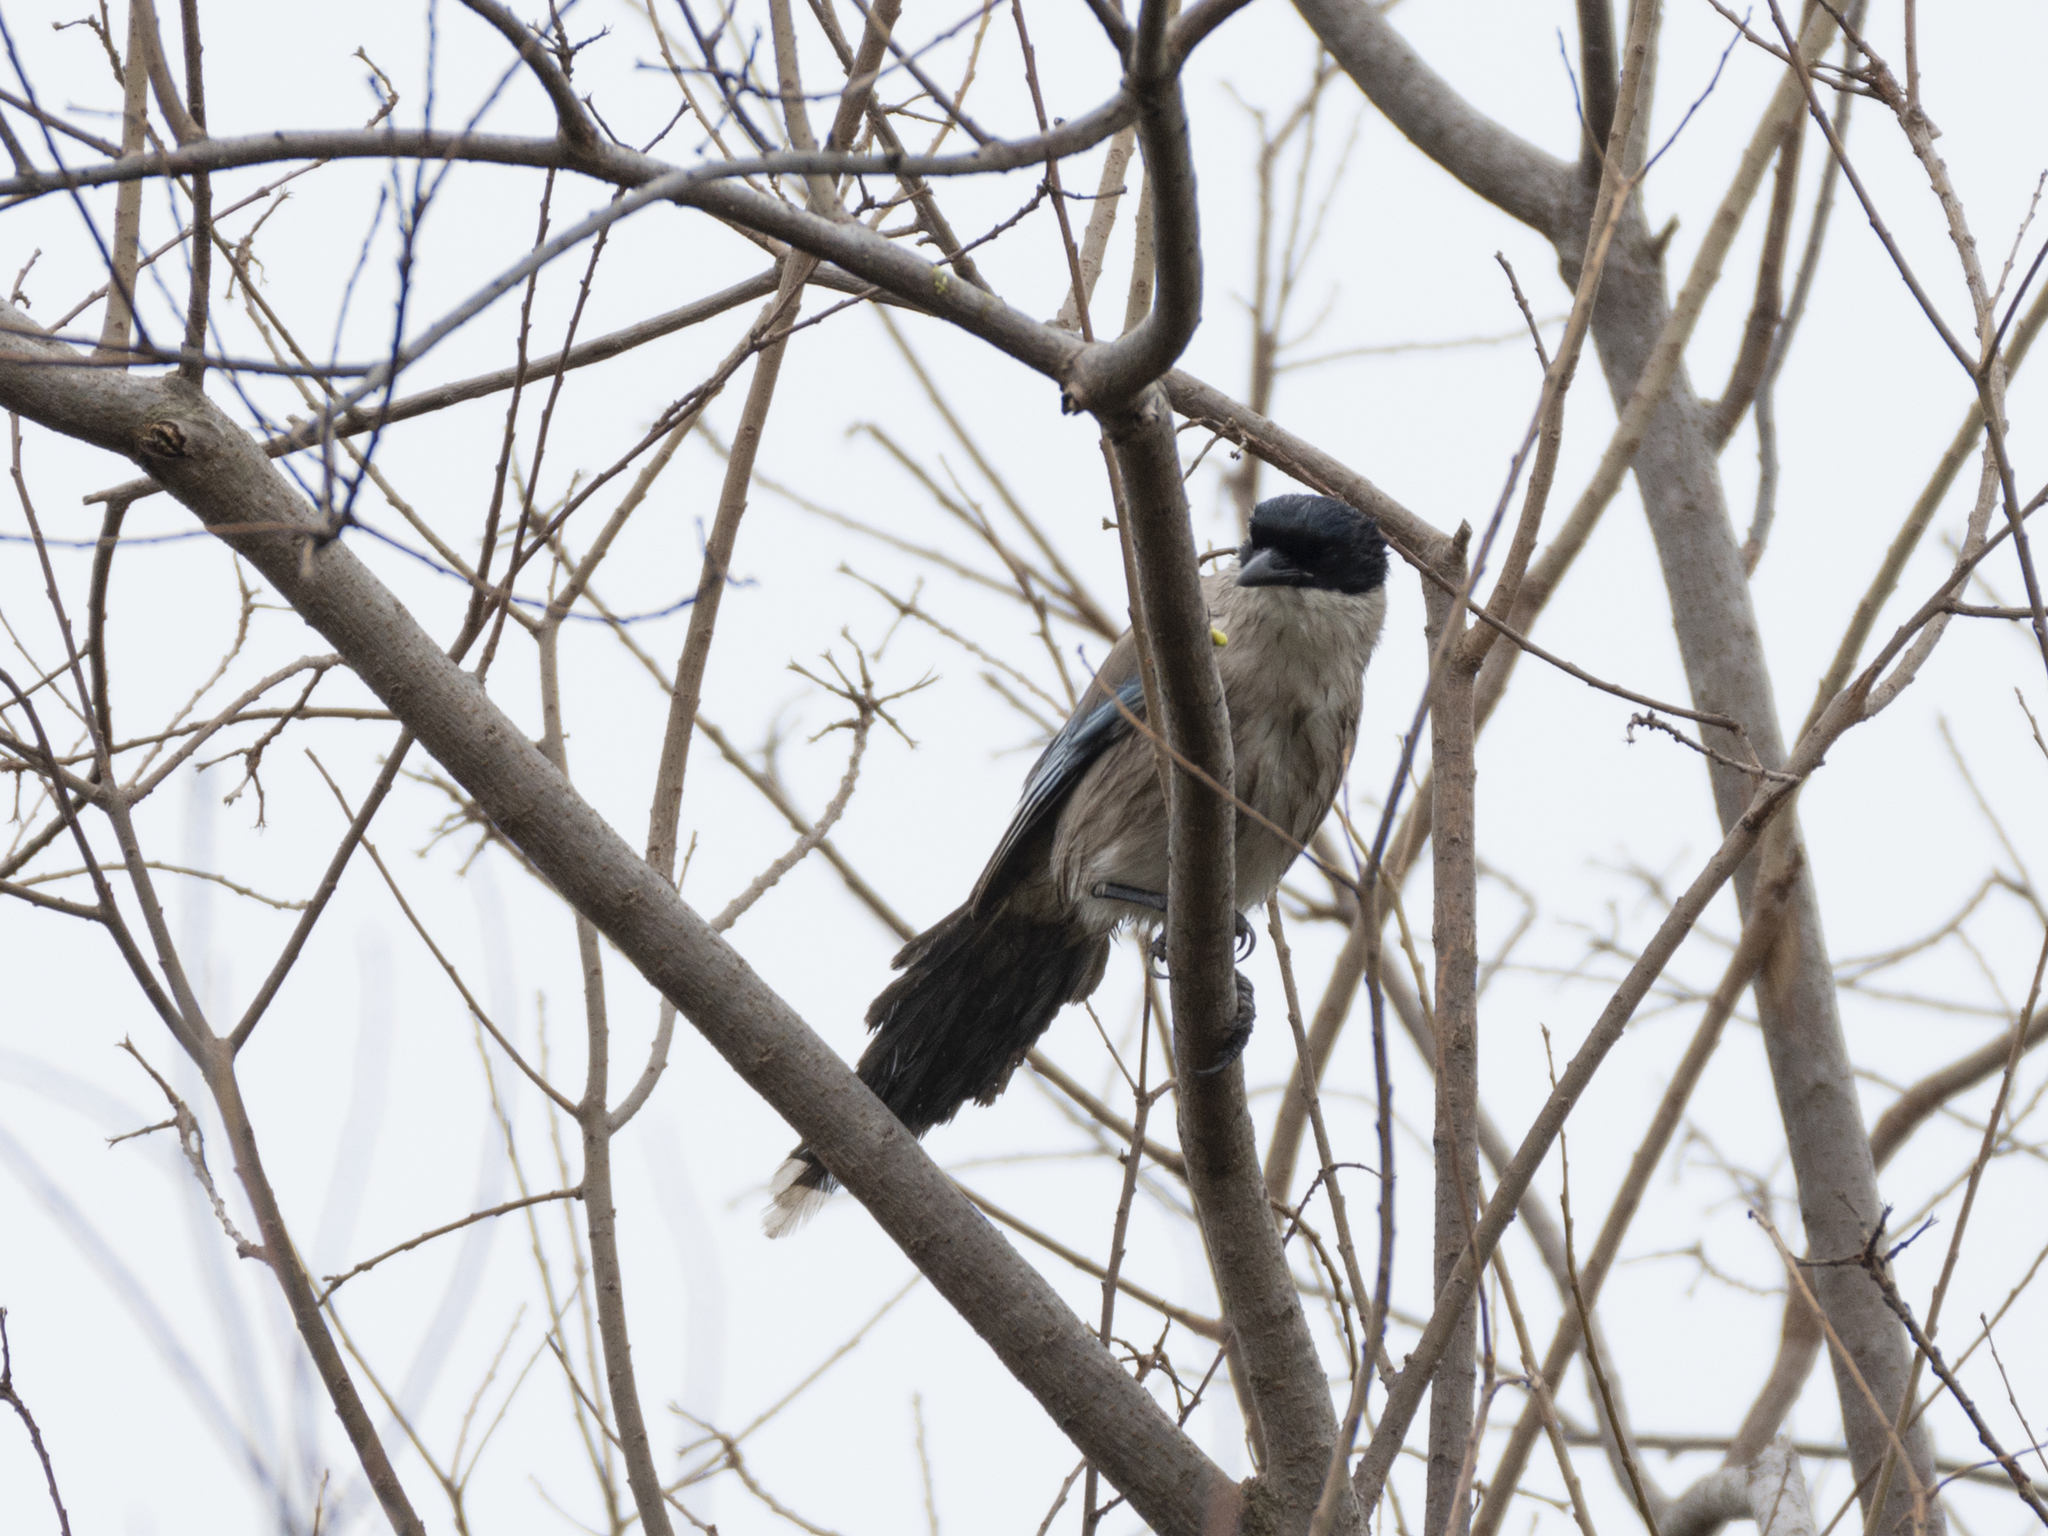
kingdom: Animalia
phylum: Chordata
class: Aves
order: Passeriformes
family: Corvidae
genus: Cyanopica
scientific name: Cyanopica cyanus
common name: Azure-winged magpie
